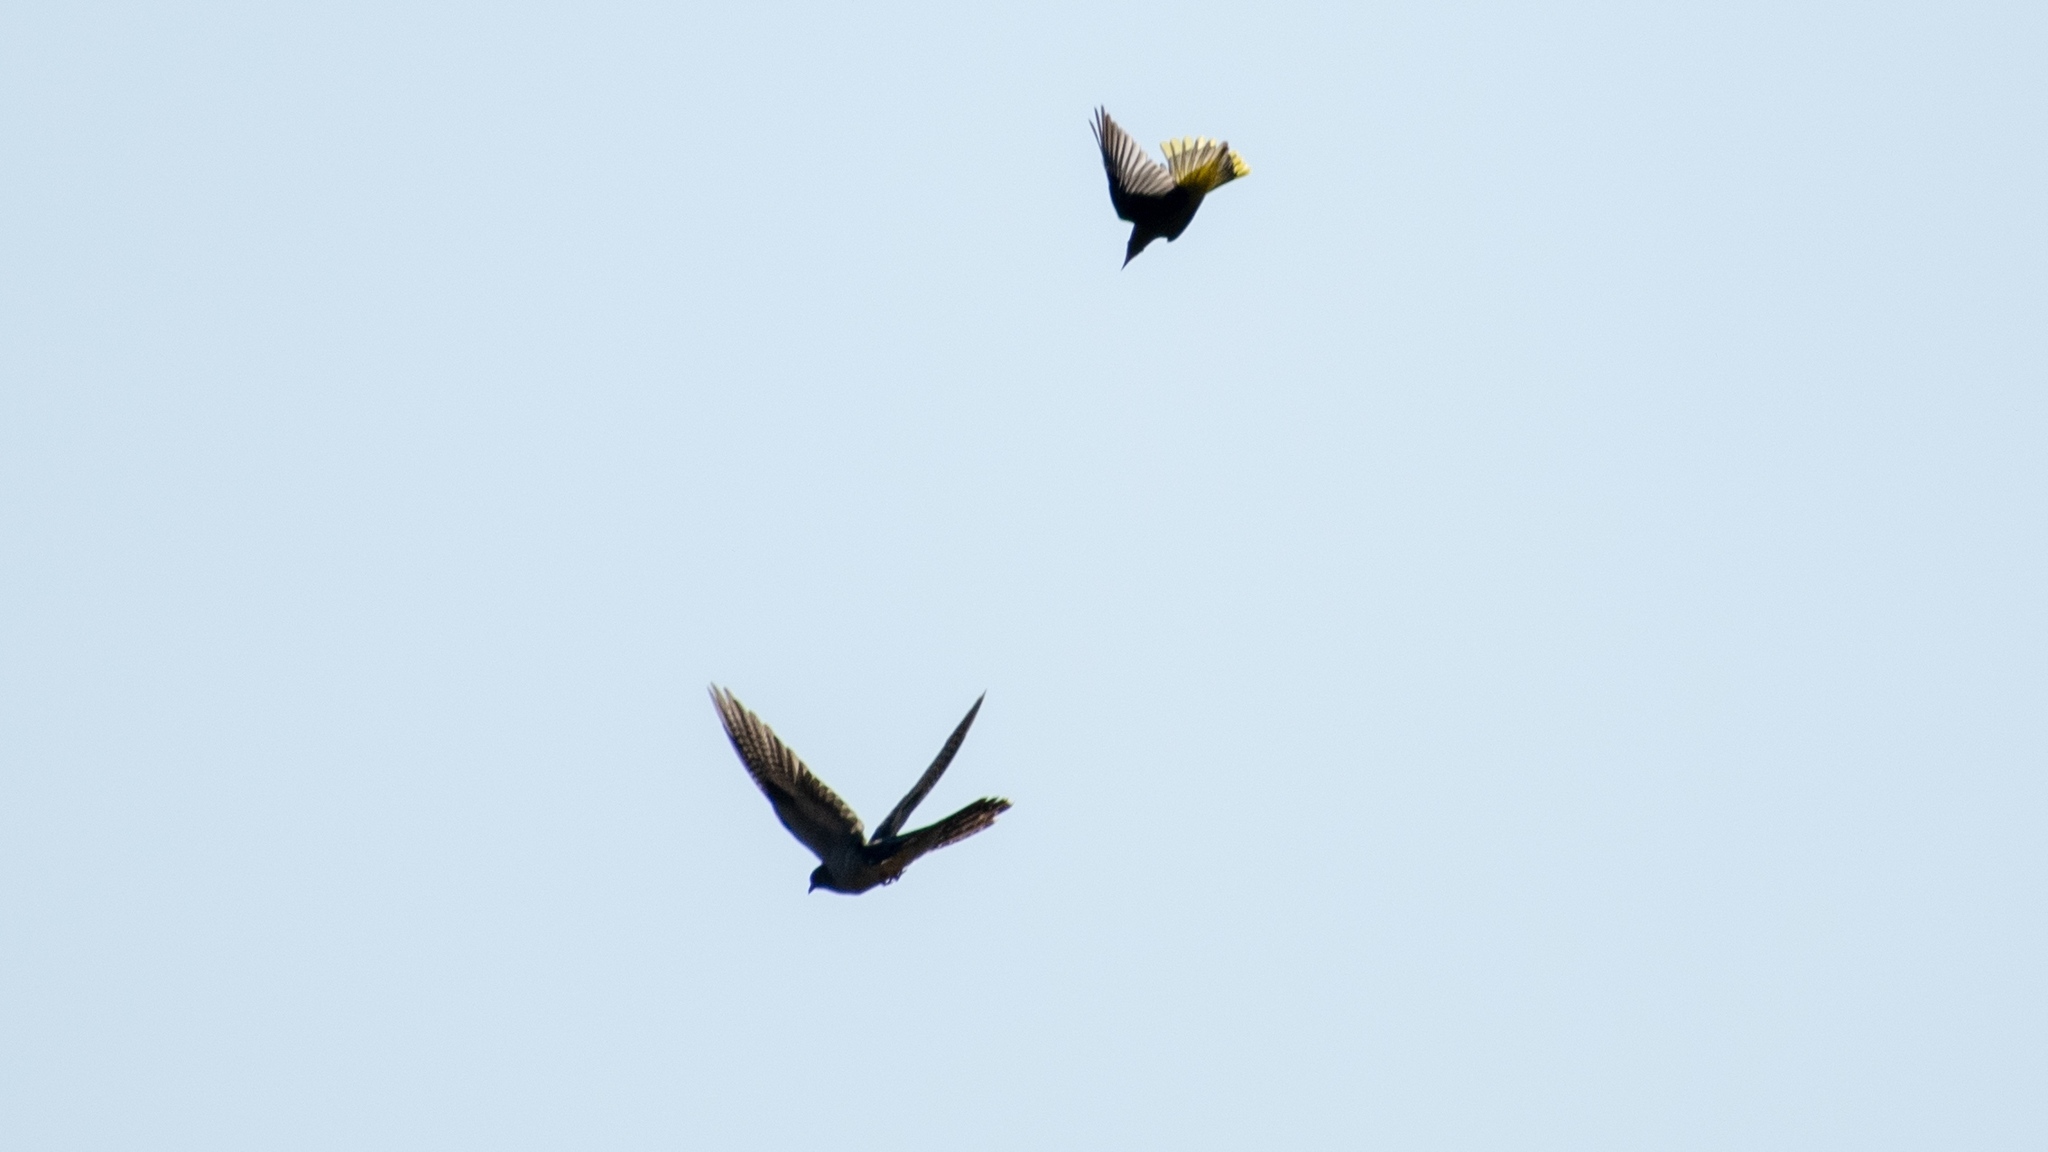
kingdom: Animalia
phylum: Chordata
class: Aves
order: Cuculiformes
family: Cuculidae
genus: Cuculus
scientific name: Cuculus canorus
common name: Common cuckoo
